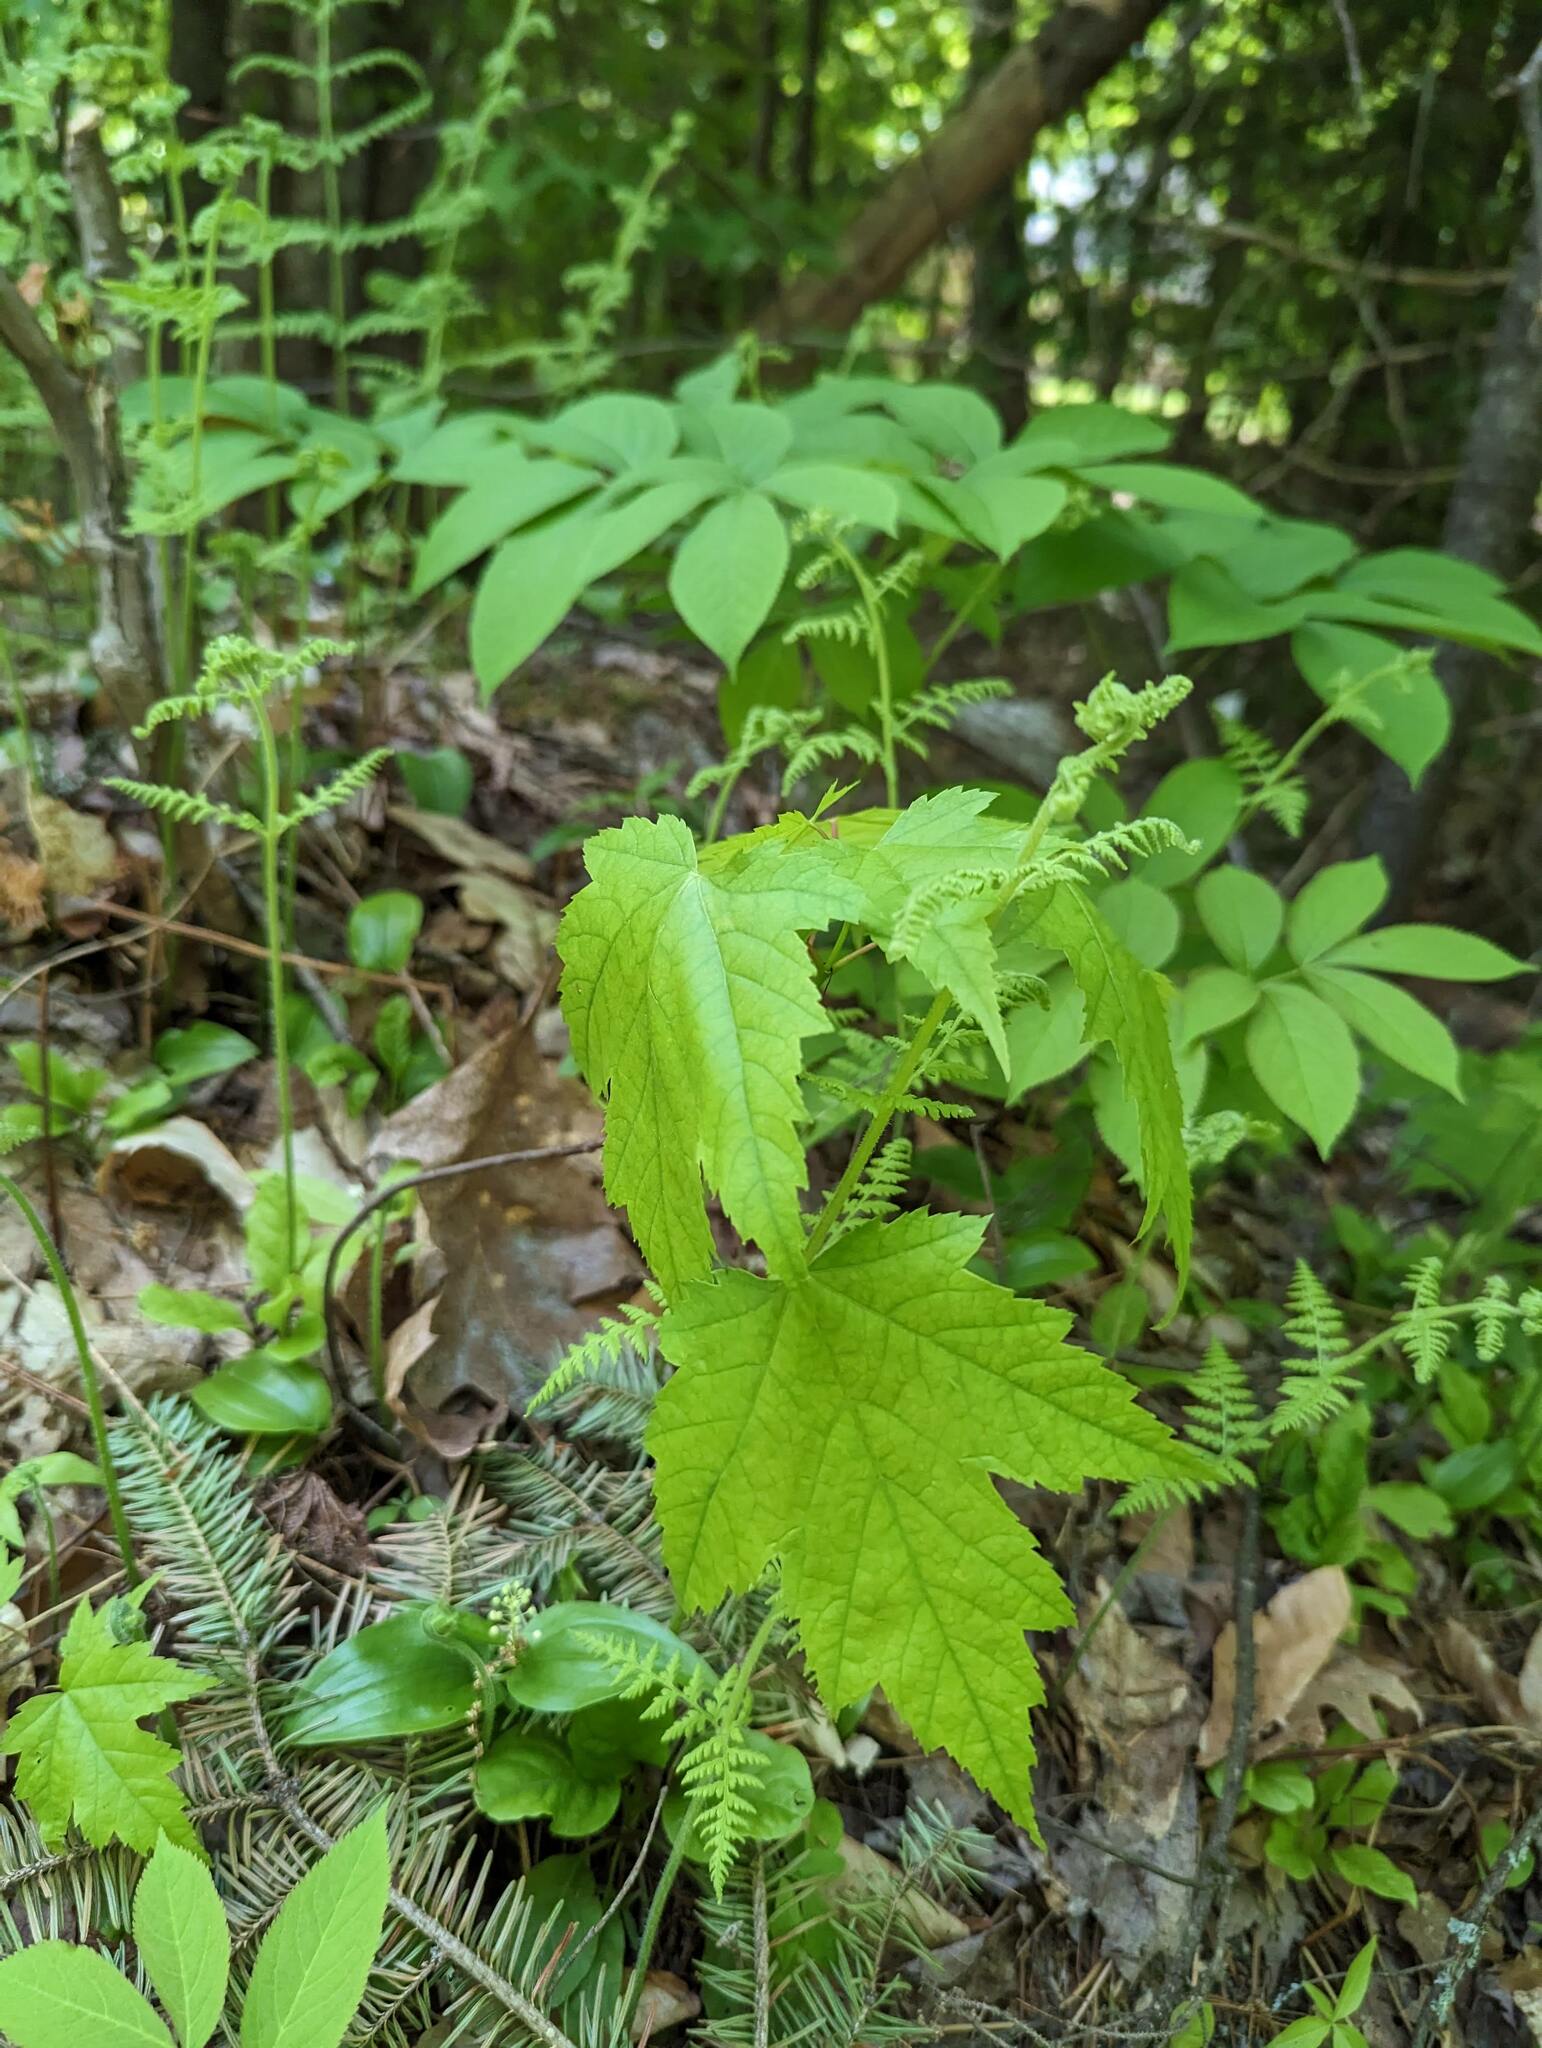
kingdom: Plantae
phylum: Tracheophyta
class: Magnoliopsida
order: Sapindales
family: Sapindaceae
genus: Acer
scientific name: Acer rubrum
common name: Red maple
